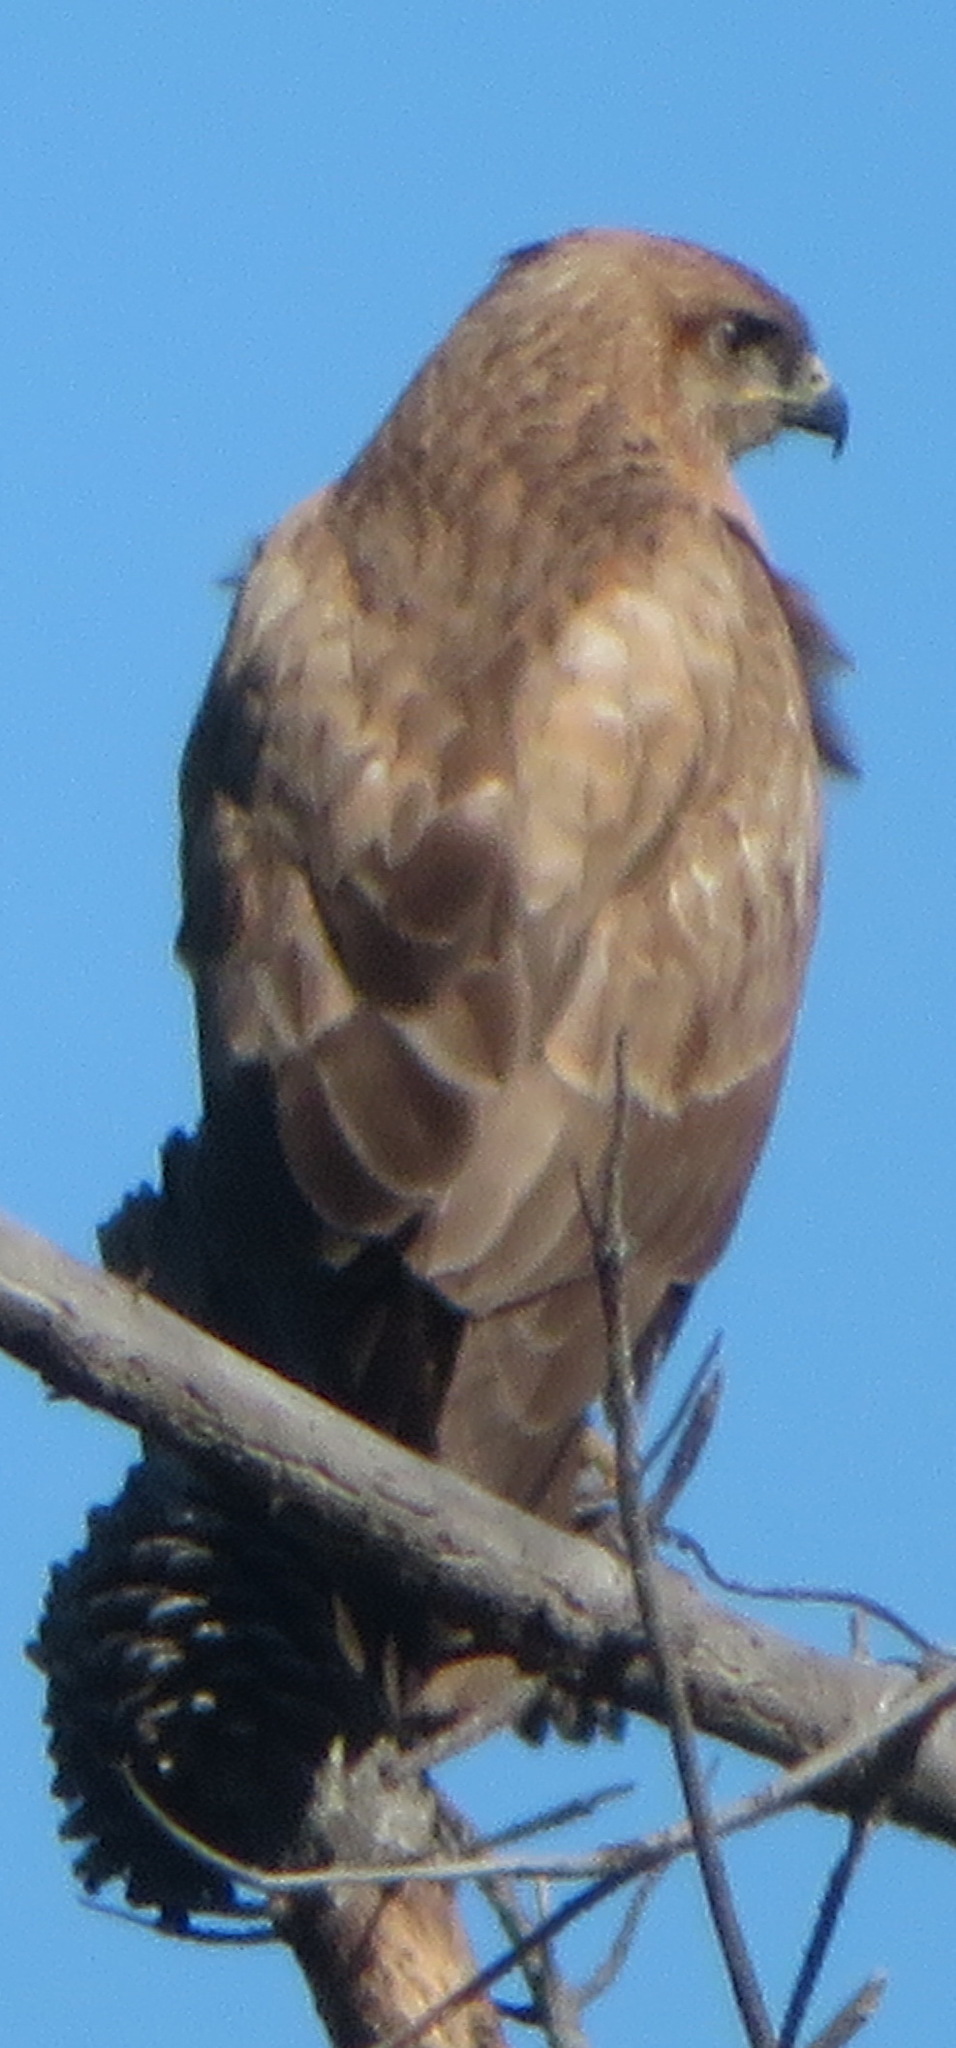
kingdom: Animalia
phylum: Chordata
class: Aves
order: Accipitriformes
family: Accipitridae
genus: Buteo
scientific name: Buteo rufofuscus
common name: Jackal buzzard
